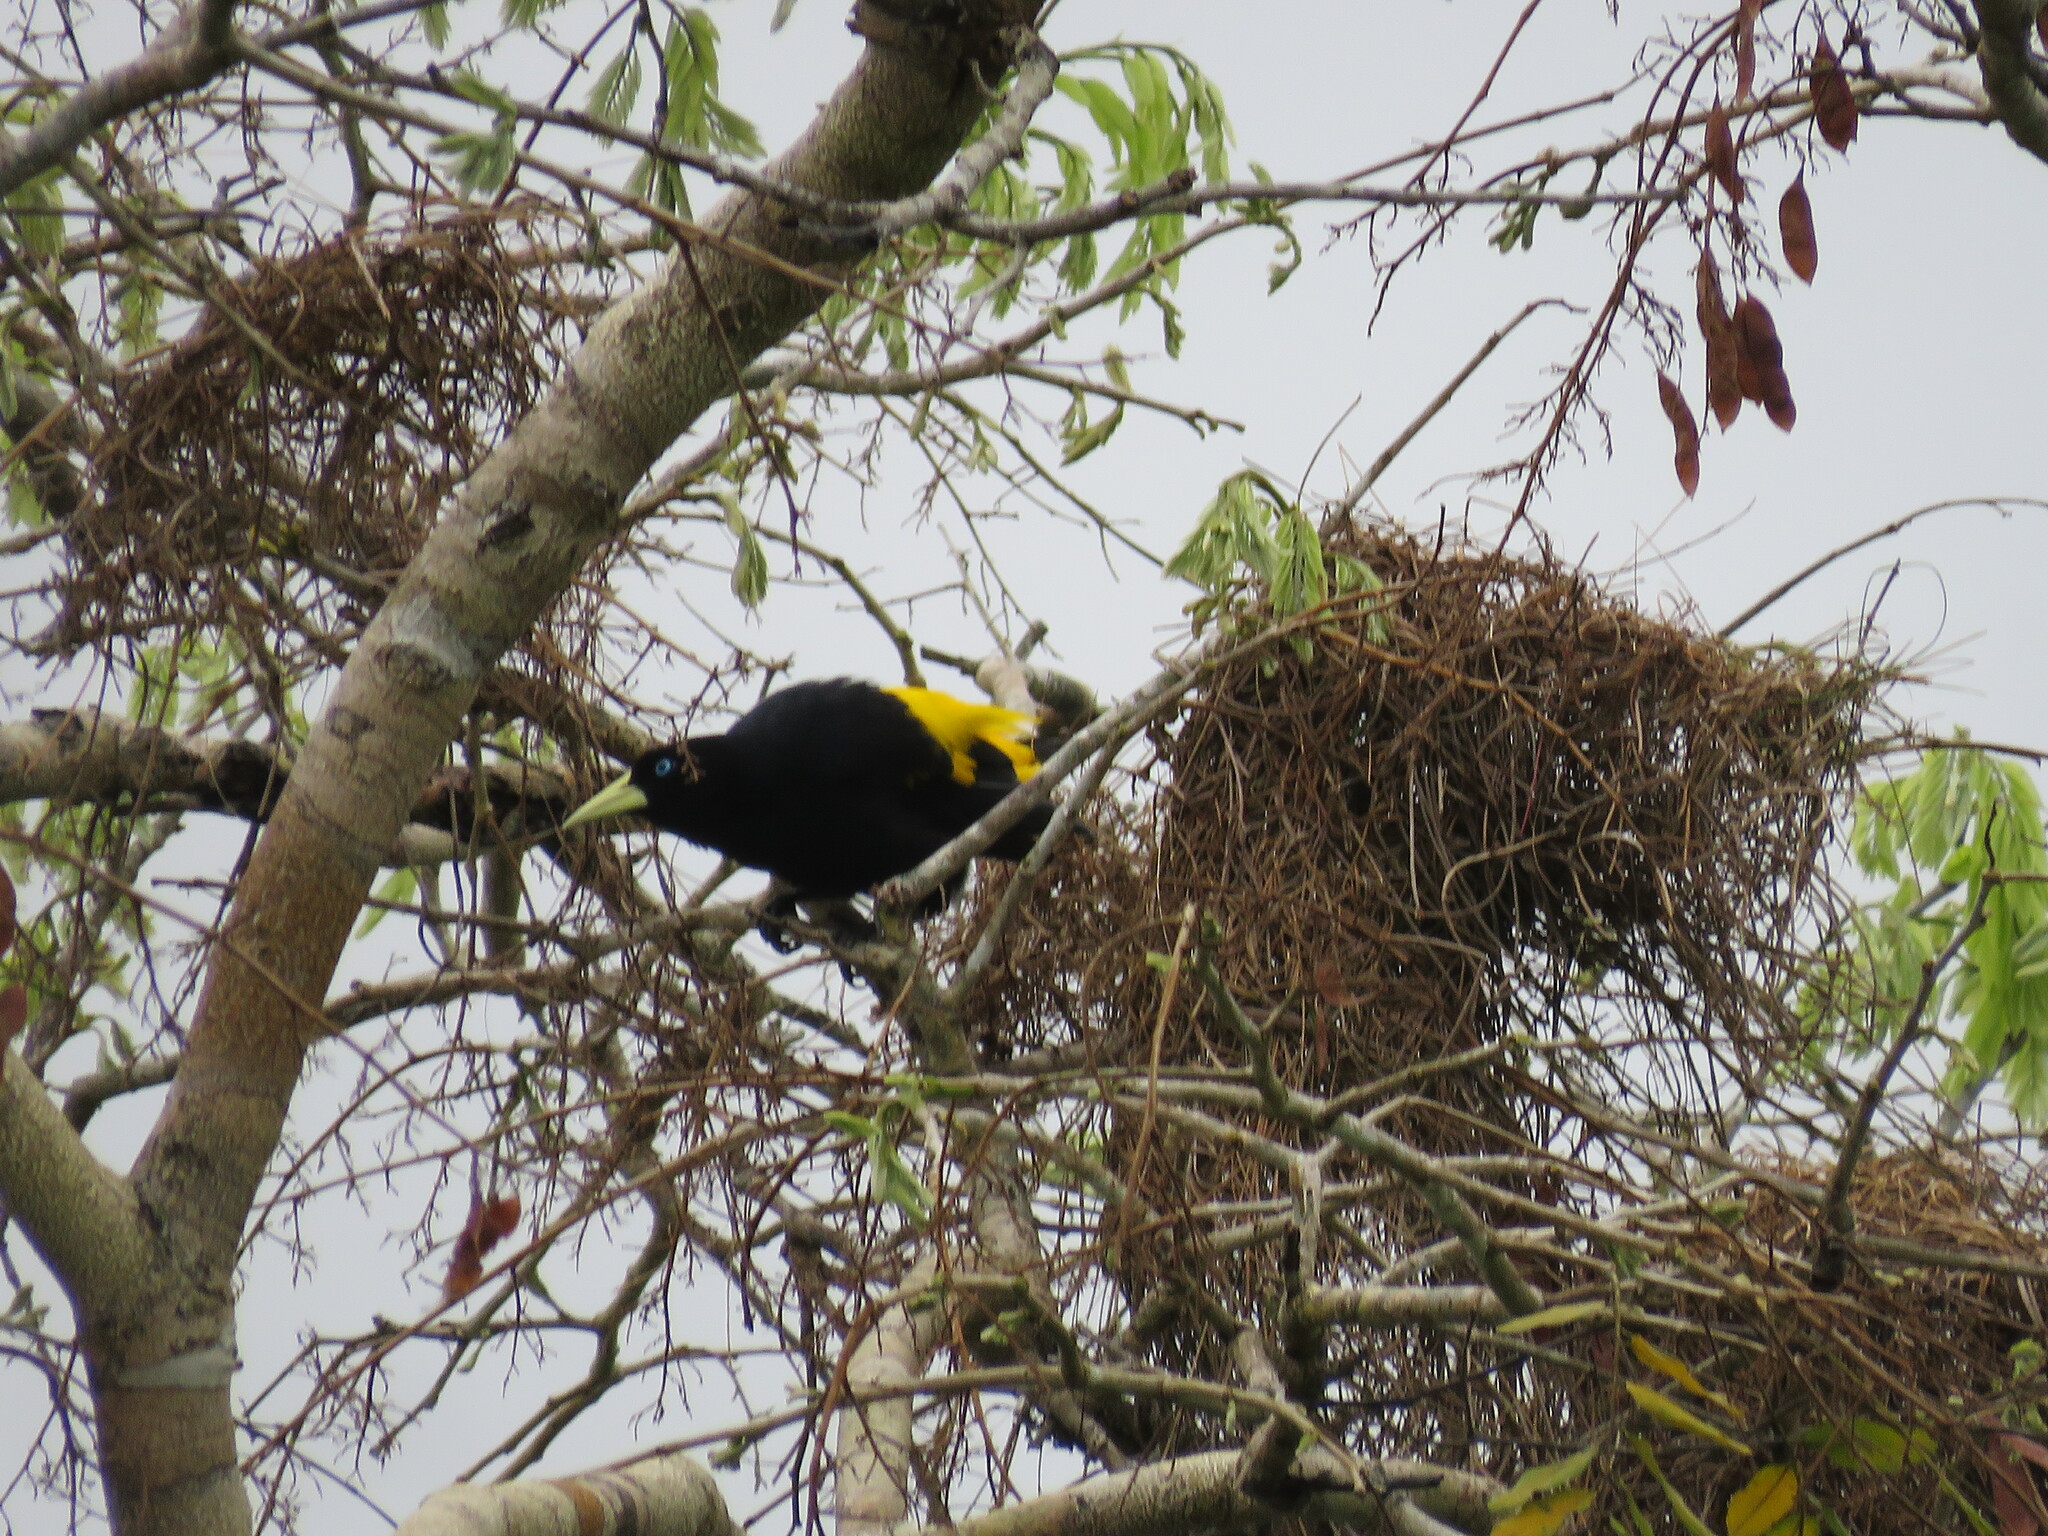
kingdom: Animalia
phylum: Chordata
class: Aves
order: Passeriformes
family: Icteridae
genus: Cacicus
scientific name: Cacicus cela
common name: Yellow-rumped cacique
